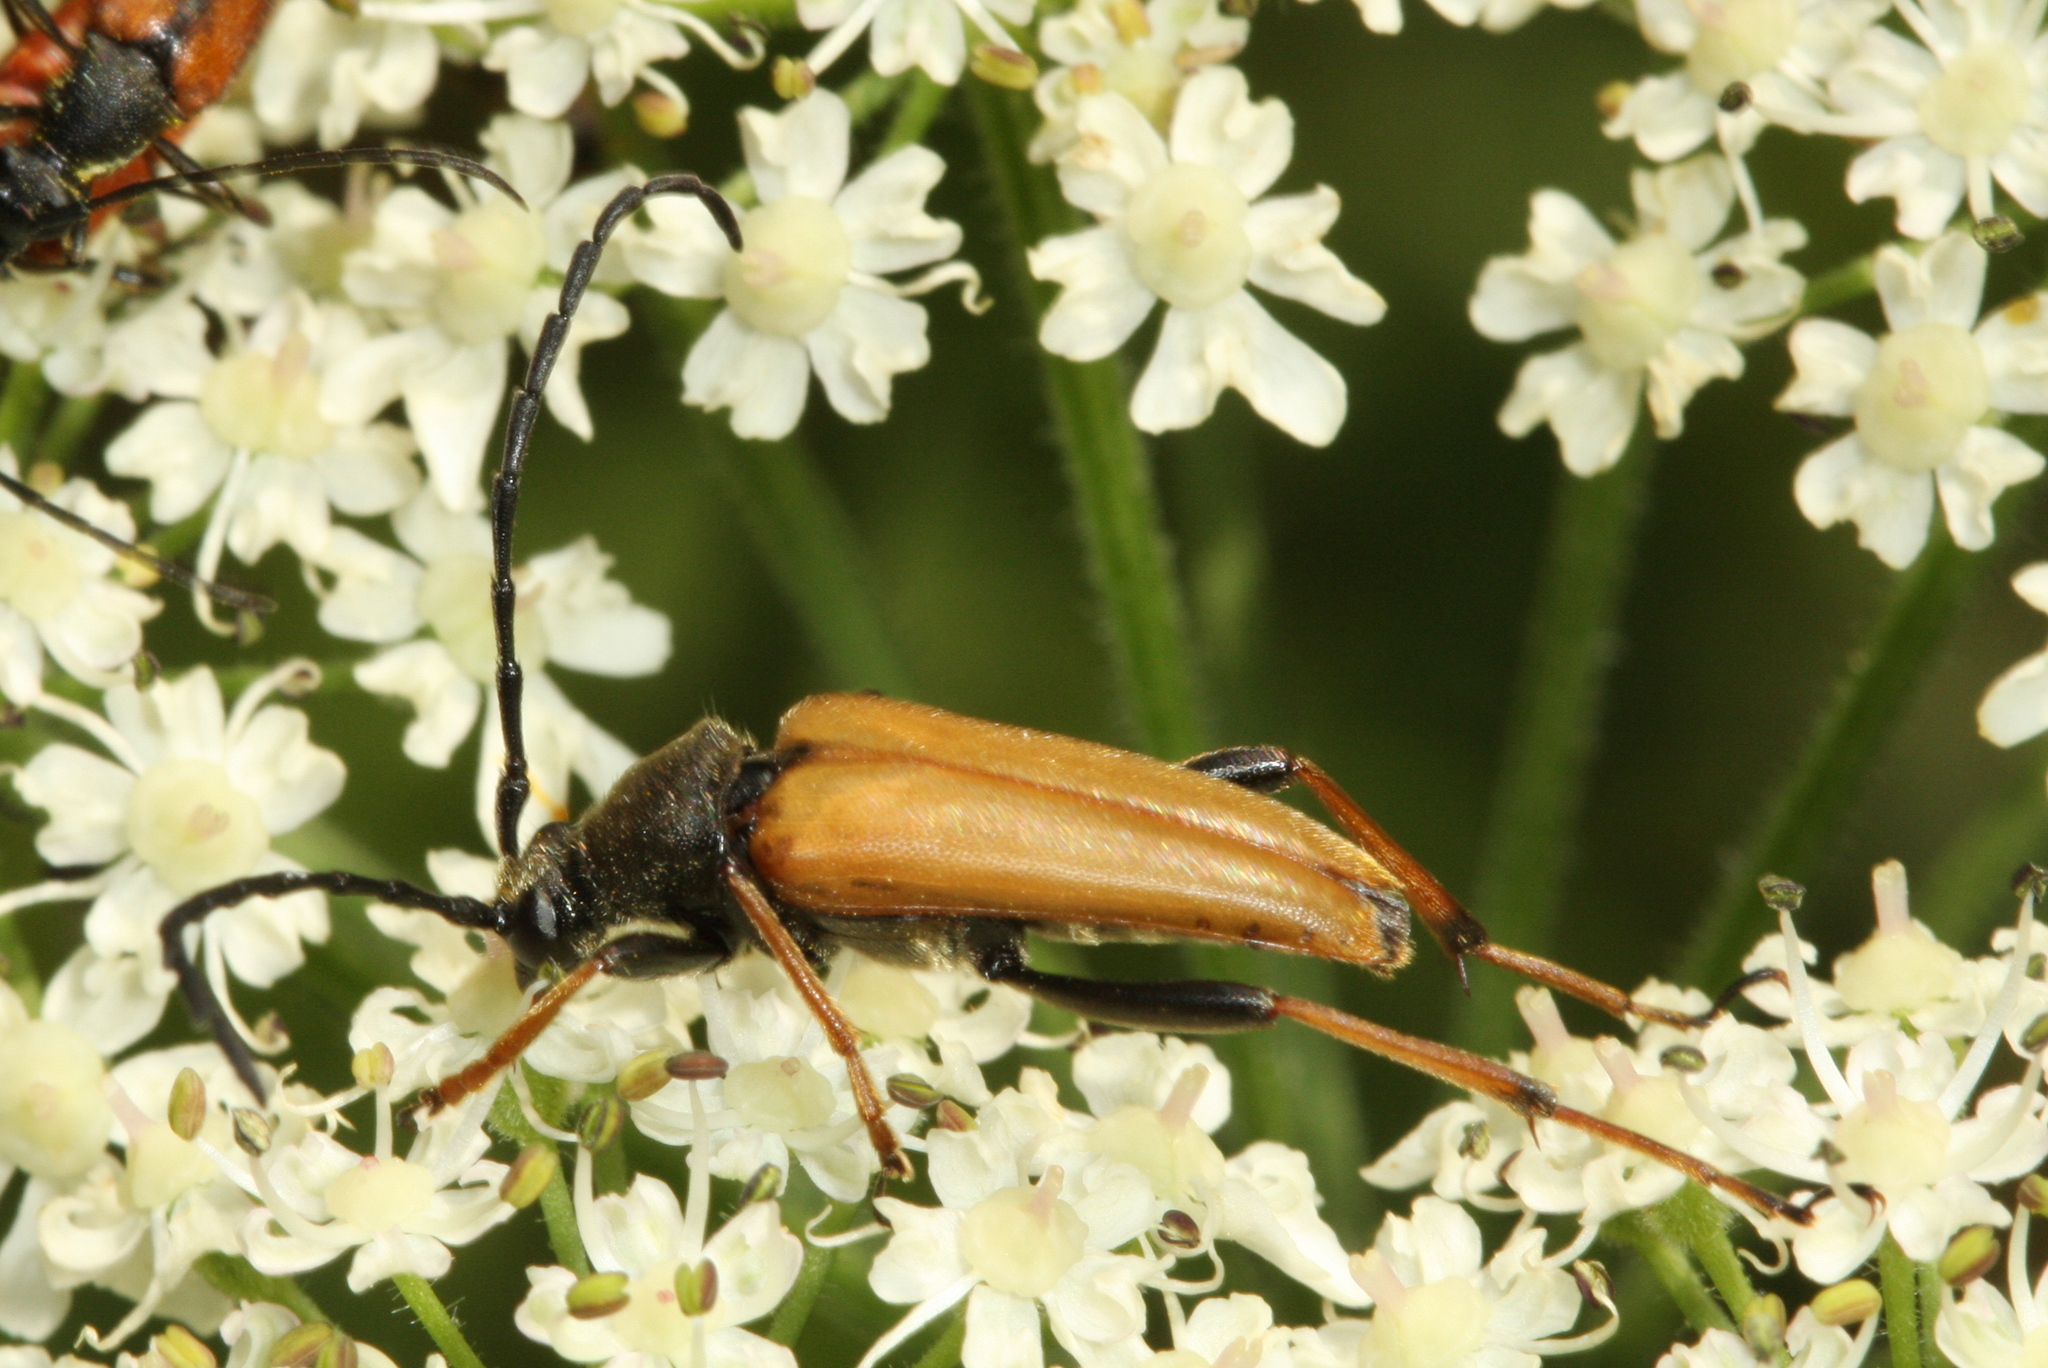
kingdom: Animalia
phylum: Arthropoda
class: Insecta
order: Coleoptera
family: Cerambycidae
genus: Stictoleptura
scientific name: Stictoleptura rubra
